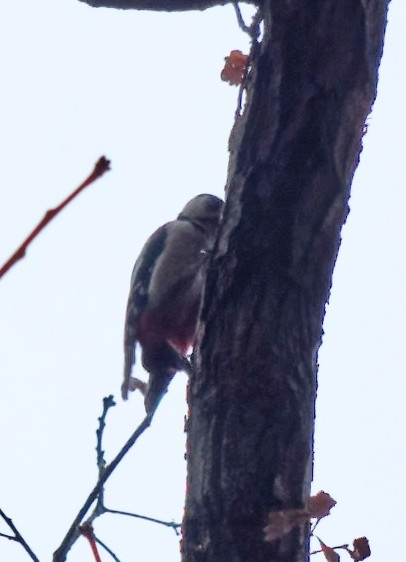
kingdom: Animalia
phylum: Chordata
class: Aves
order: Piciformes
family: Picidae
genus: Dendrocopos
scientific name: Dendrocopos major
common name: Great spotted woodpecker
